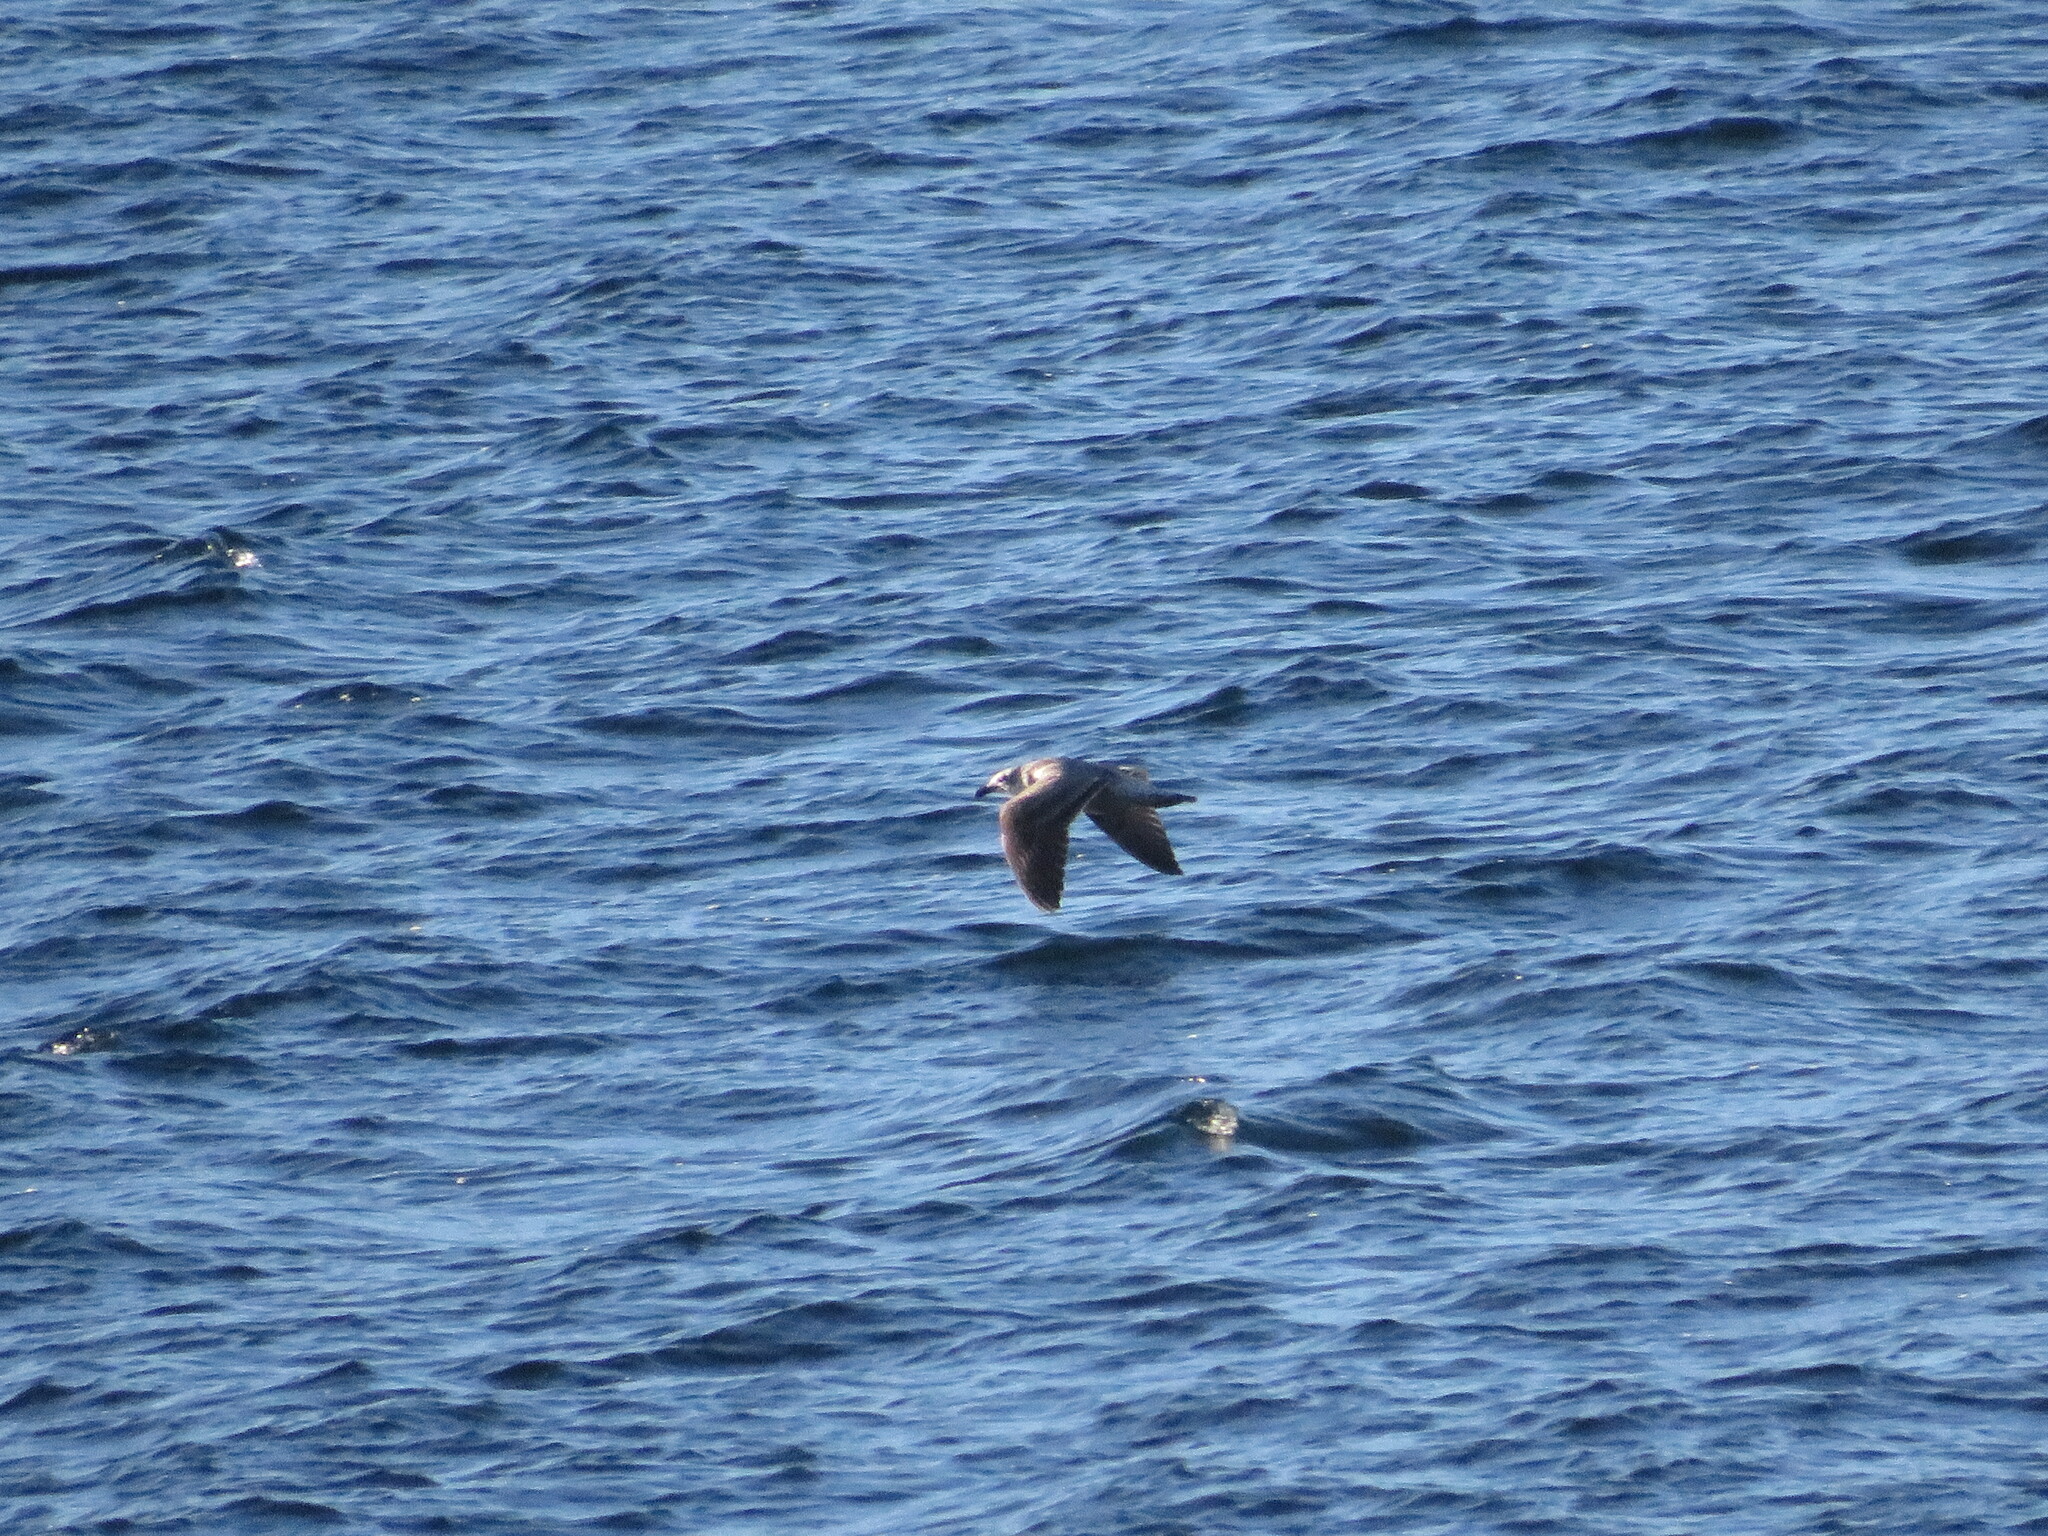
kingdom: Animalia
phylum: Chordata
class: Aves
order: Charadriiformes
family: Laridae
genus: Larus
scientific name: Larus dominicanus
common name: Kelp gull
